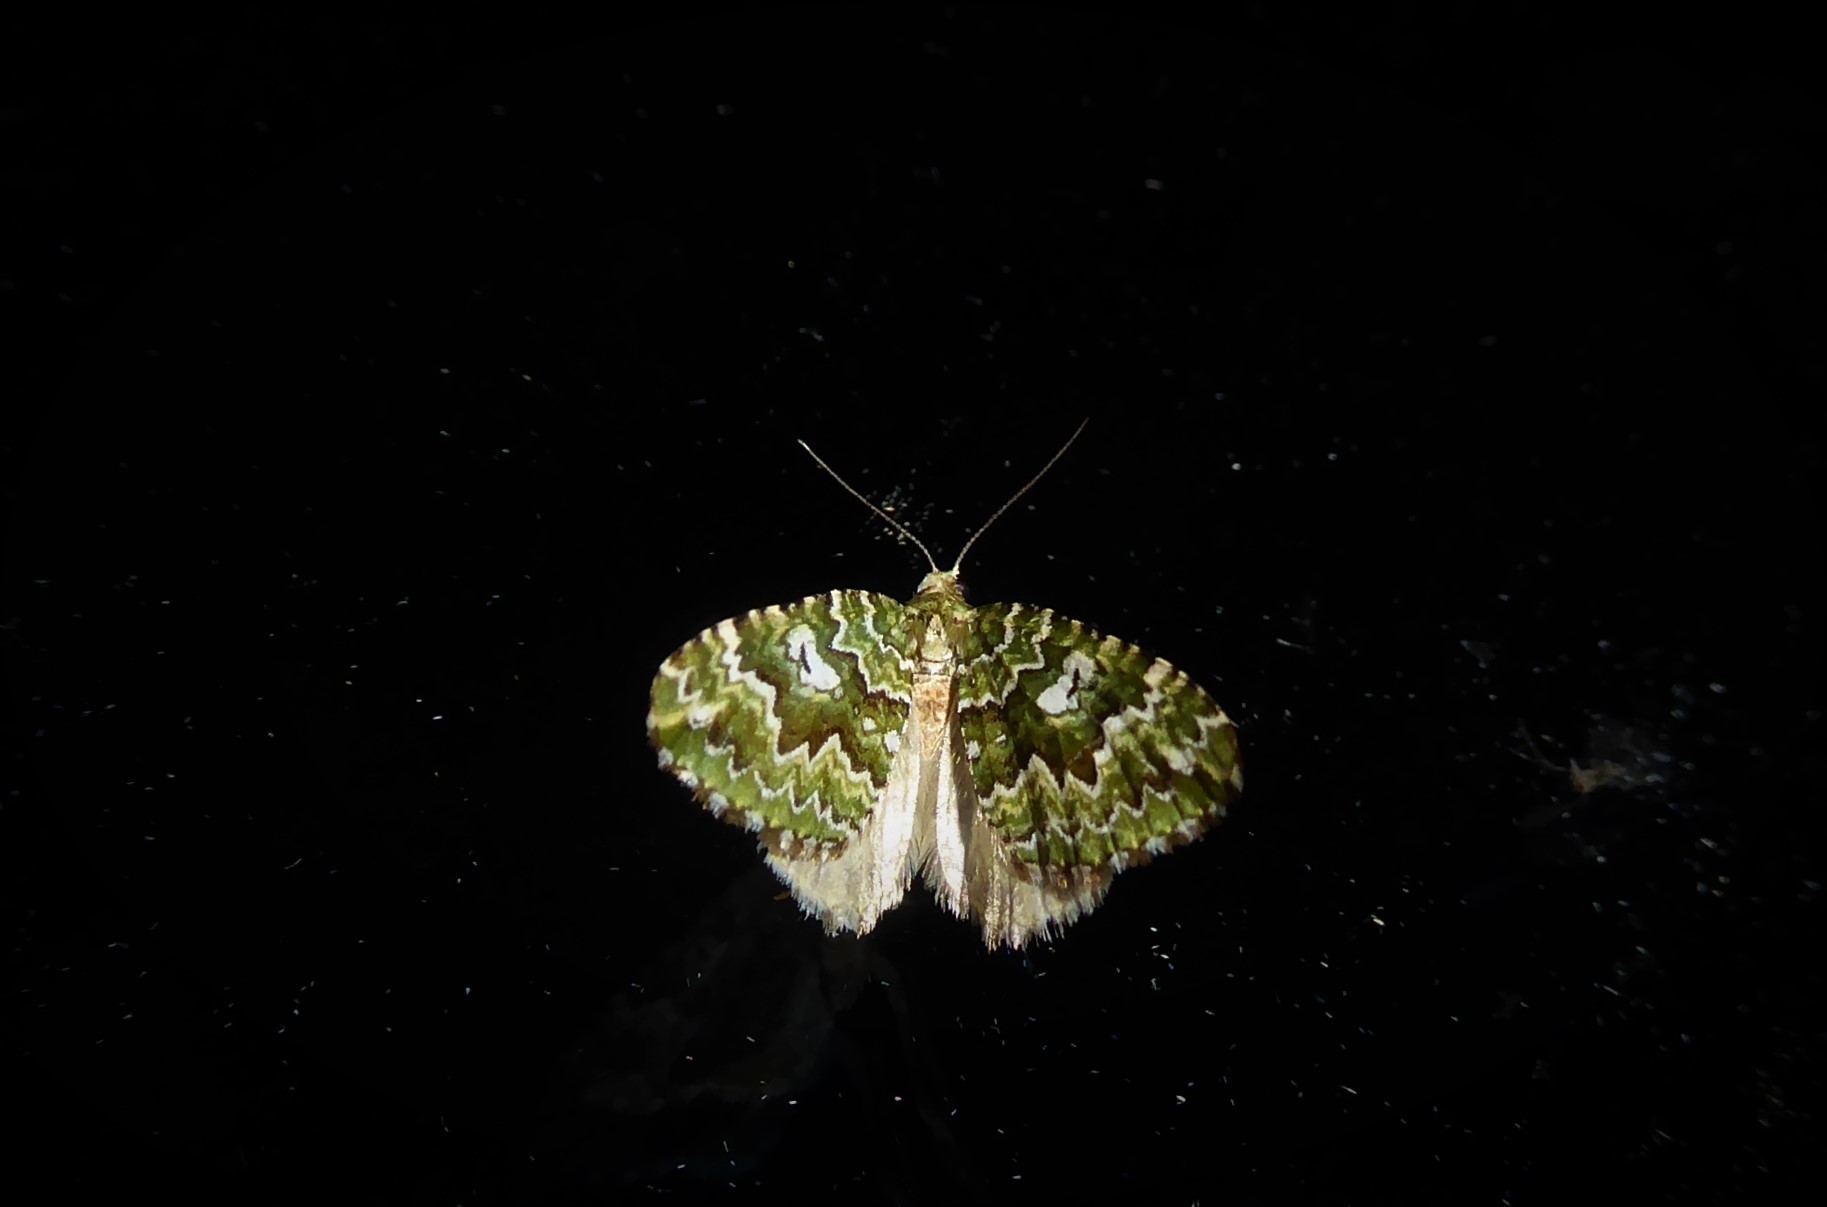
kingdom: Animalia
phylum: Arthropoda
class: Insecta
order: Lepidoptera
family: Geometridae
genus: Asaphodes
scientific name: Asaphodes beata
